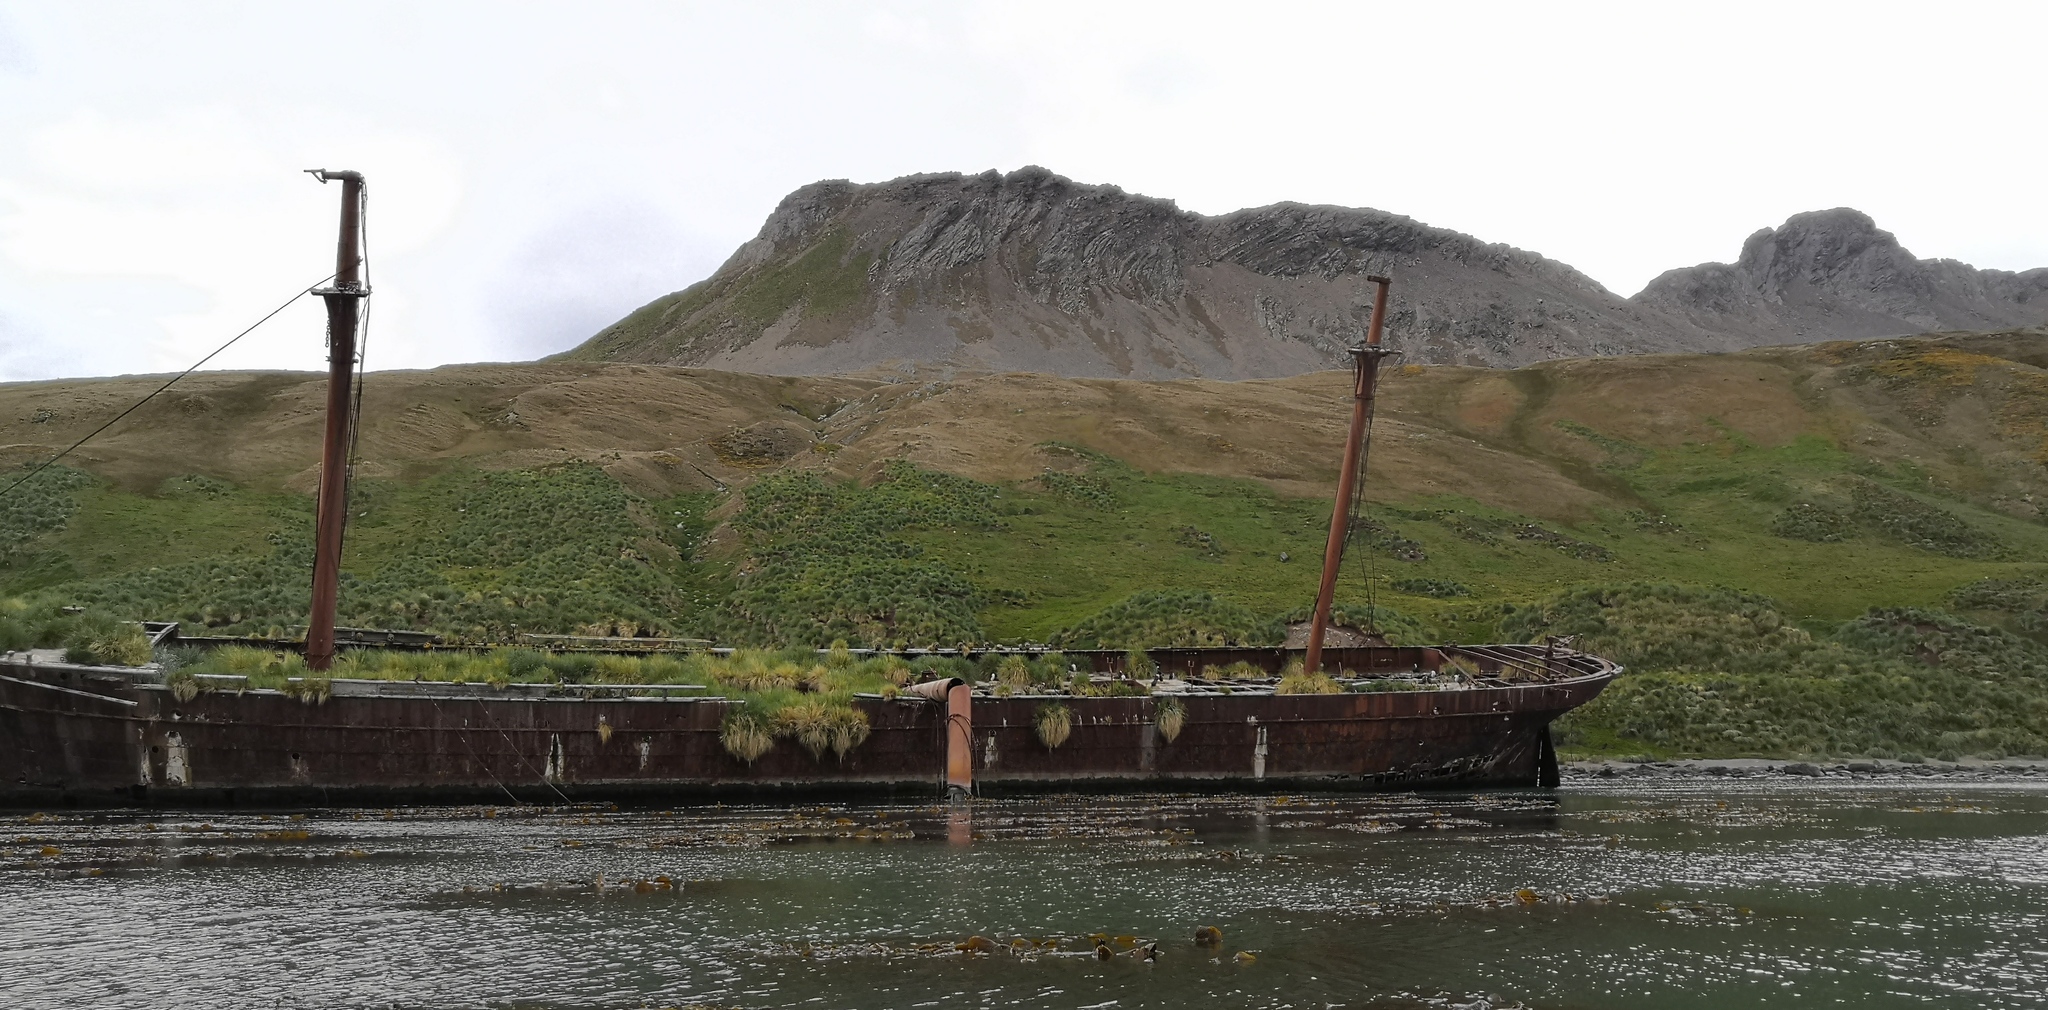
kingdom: Animalia
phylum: Chordata
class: Aves
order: Suliformes
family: Phalacrocoracidae
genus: Leucocarbo
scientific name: Leucocarbo atriceps
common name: Imperial shag
